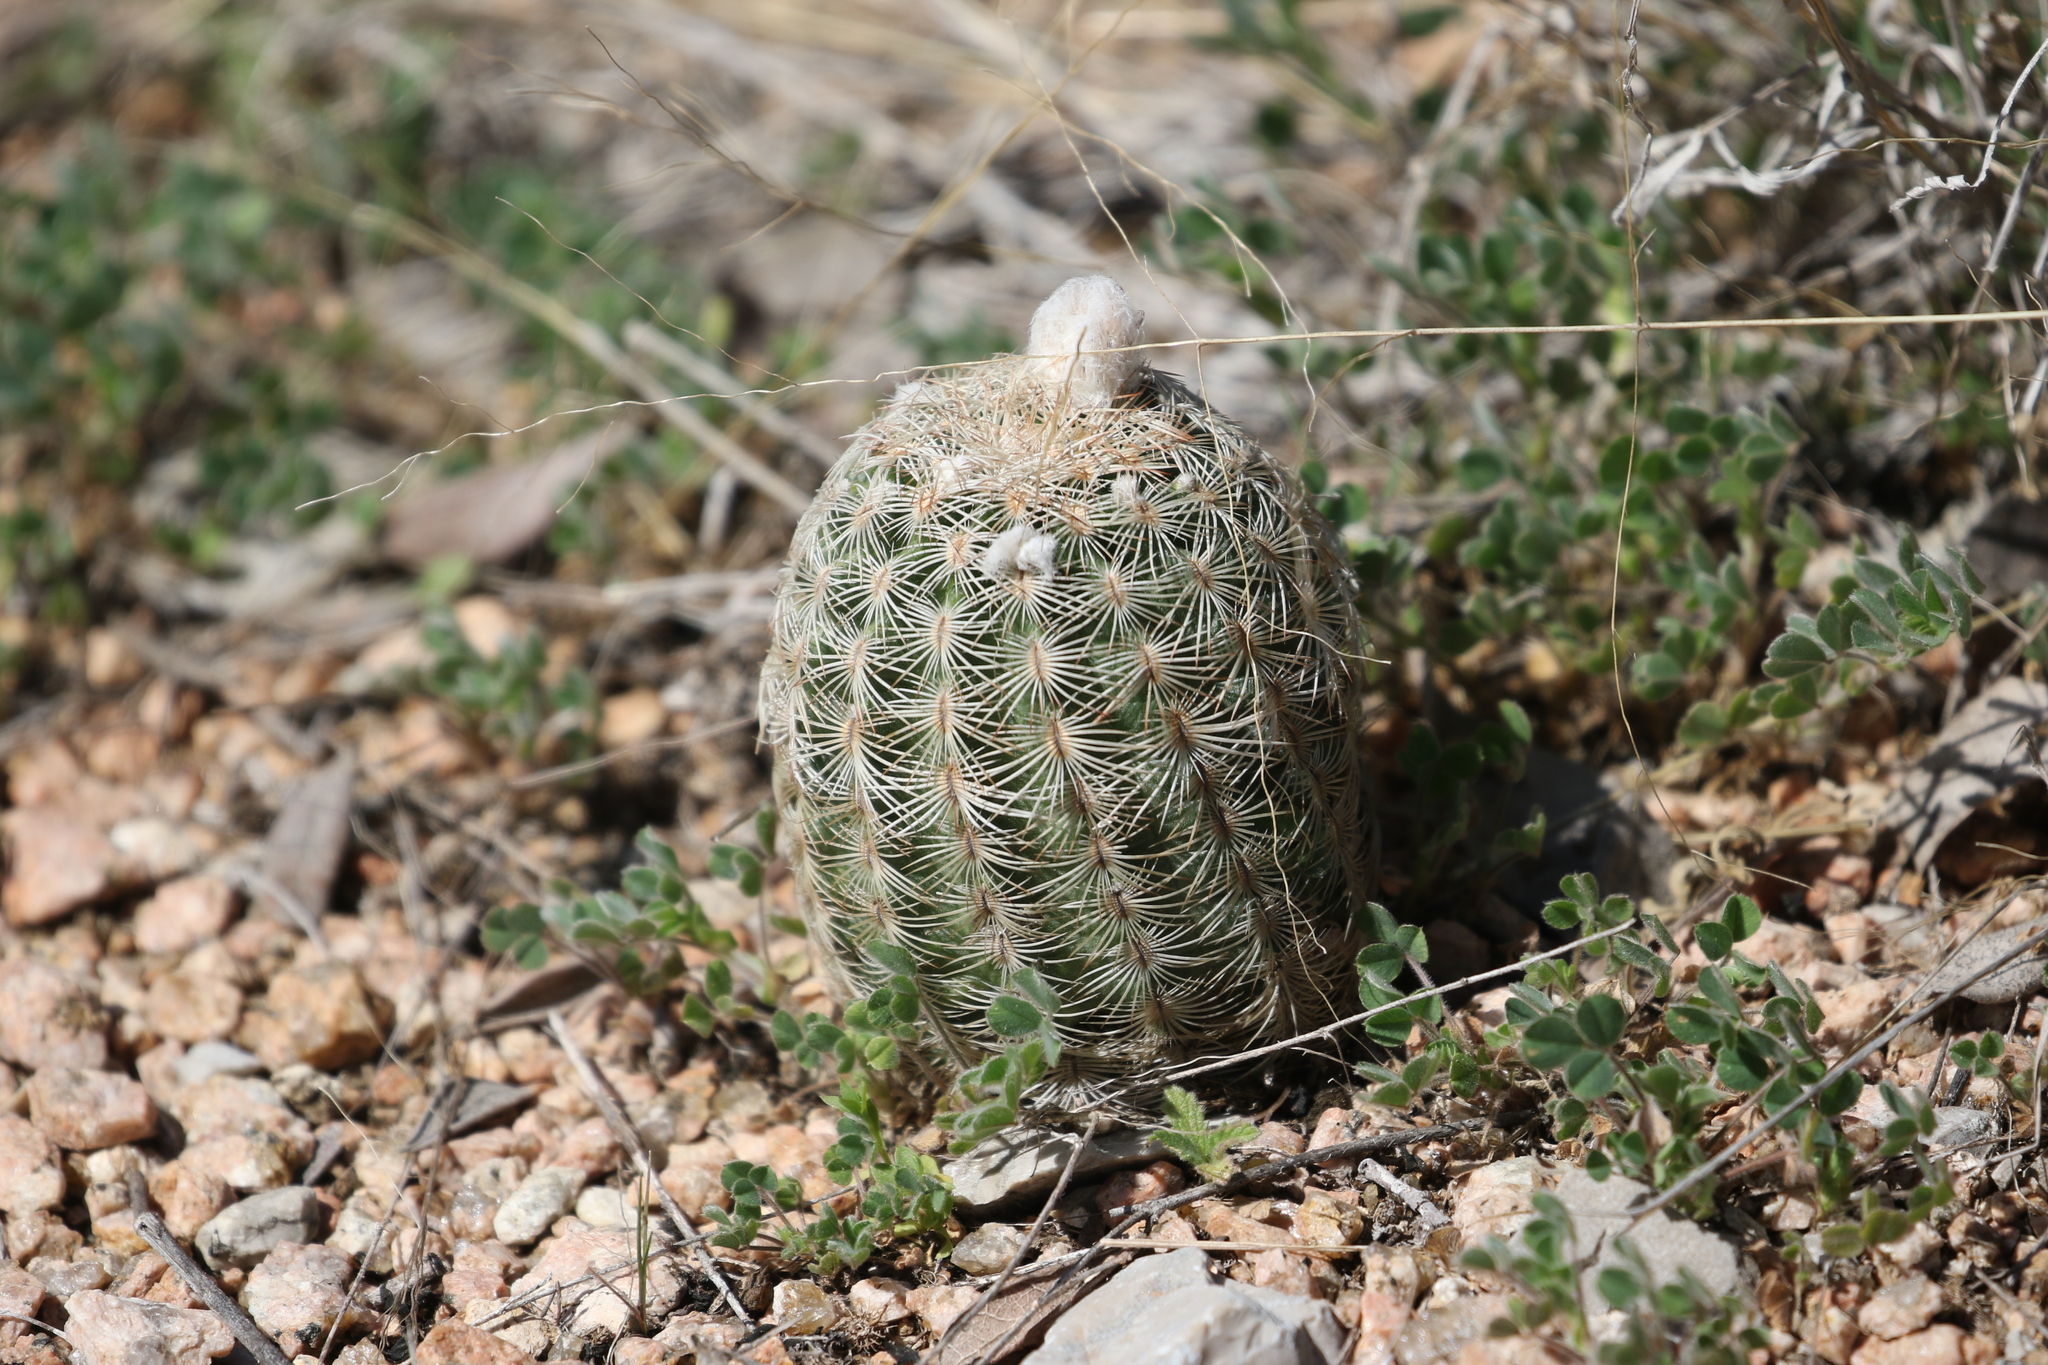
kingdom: Plantae
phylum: Tracheophyta
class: Magnoliopsida
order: Caryophyllales
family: Cactaceae
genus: Echinocereus
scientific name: Echinocereus reichenbachii
